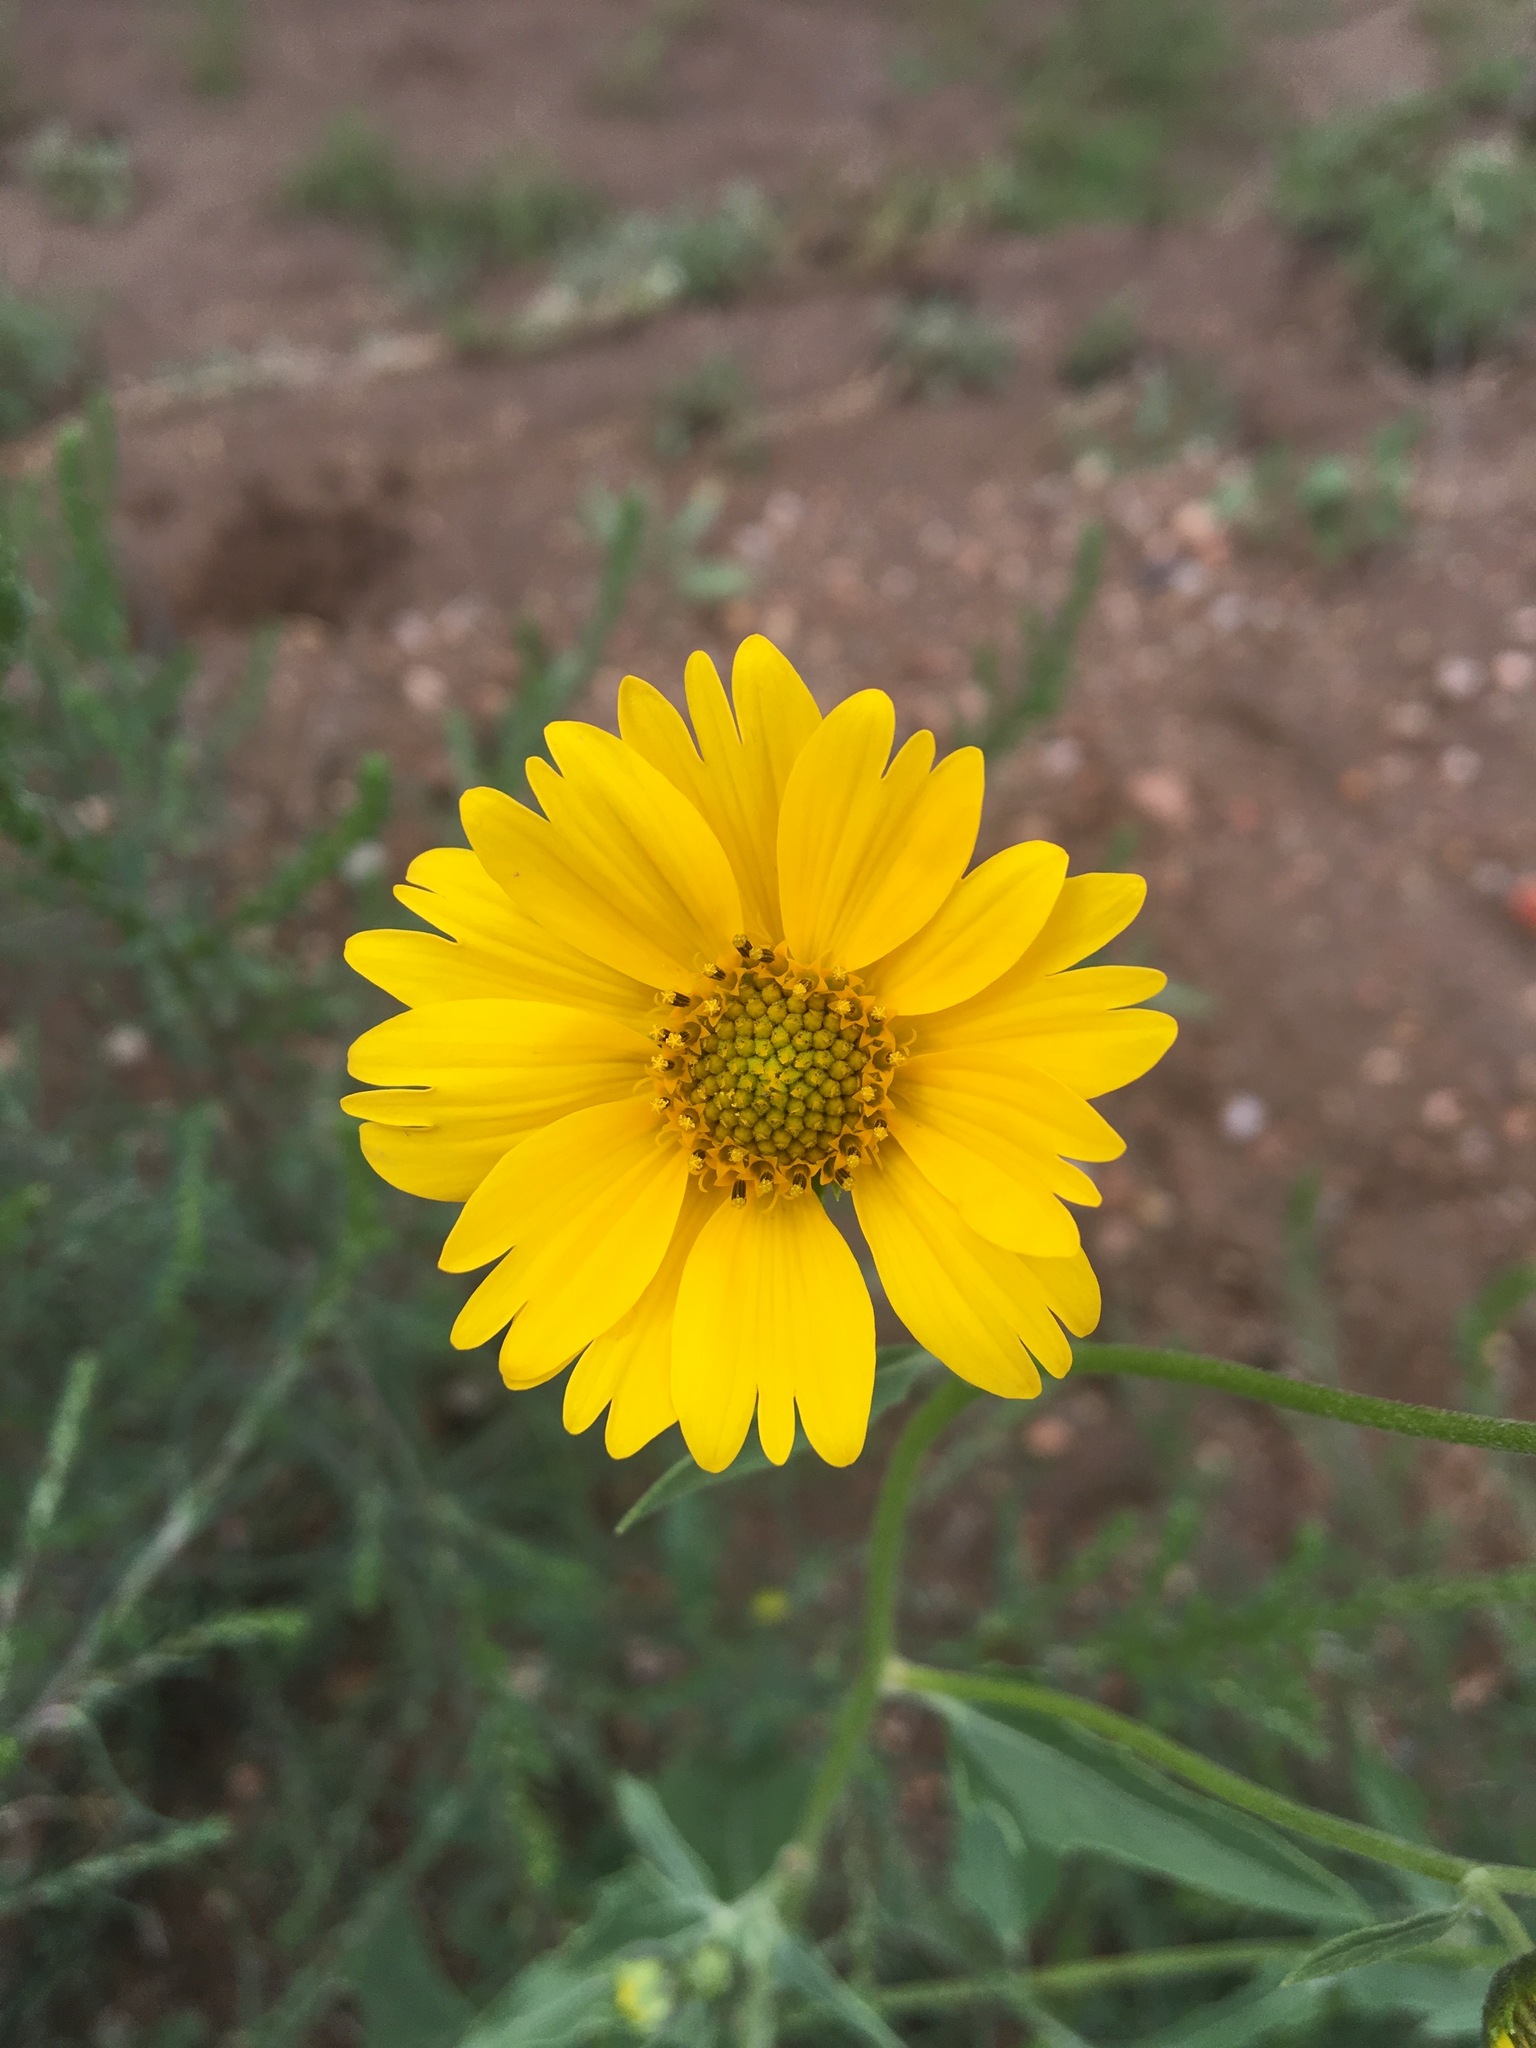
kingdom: Plantae
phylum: Tracheophyta
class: Magnoliopsida
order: Asterales
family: Asteraceae
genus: Verbesina
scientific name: Verbesina encelioides
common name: Golden crownbeard
